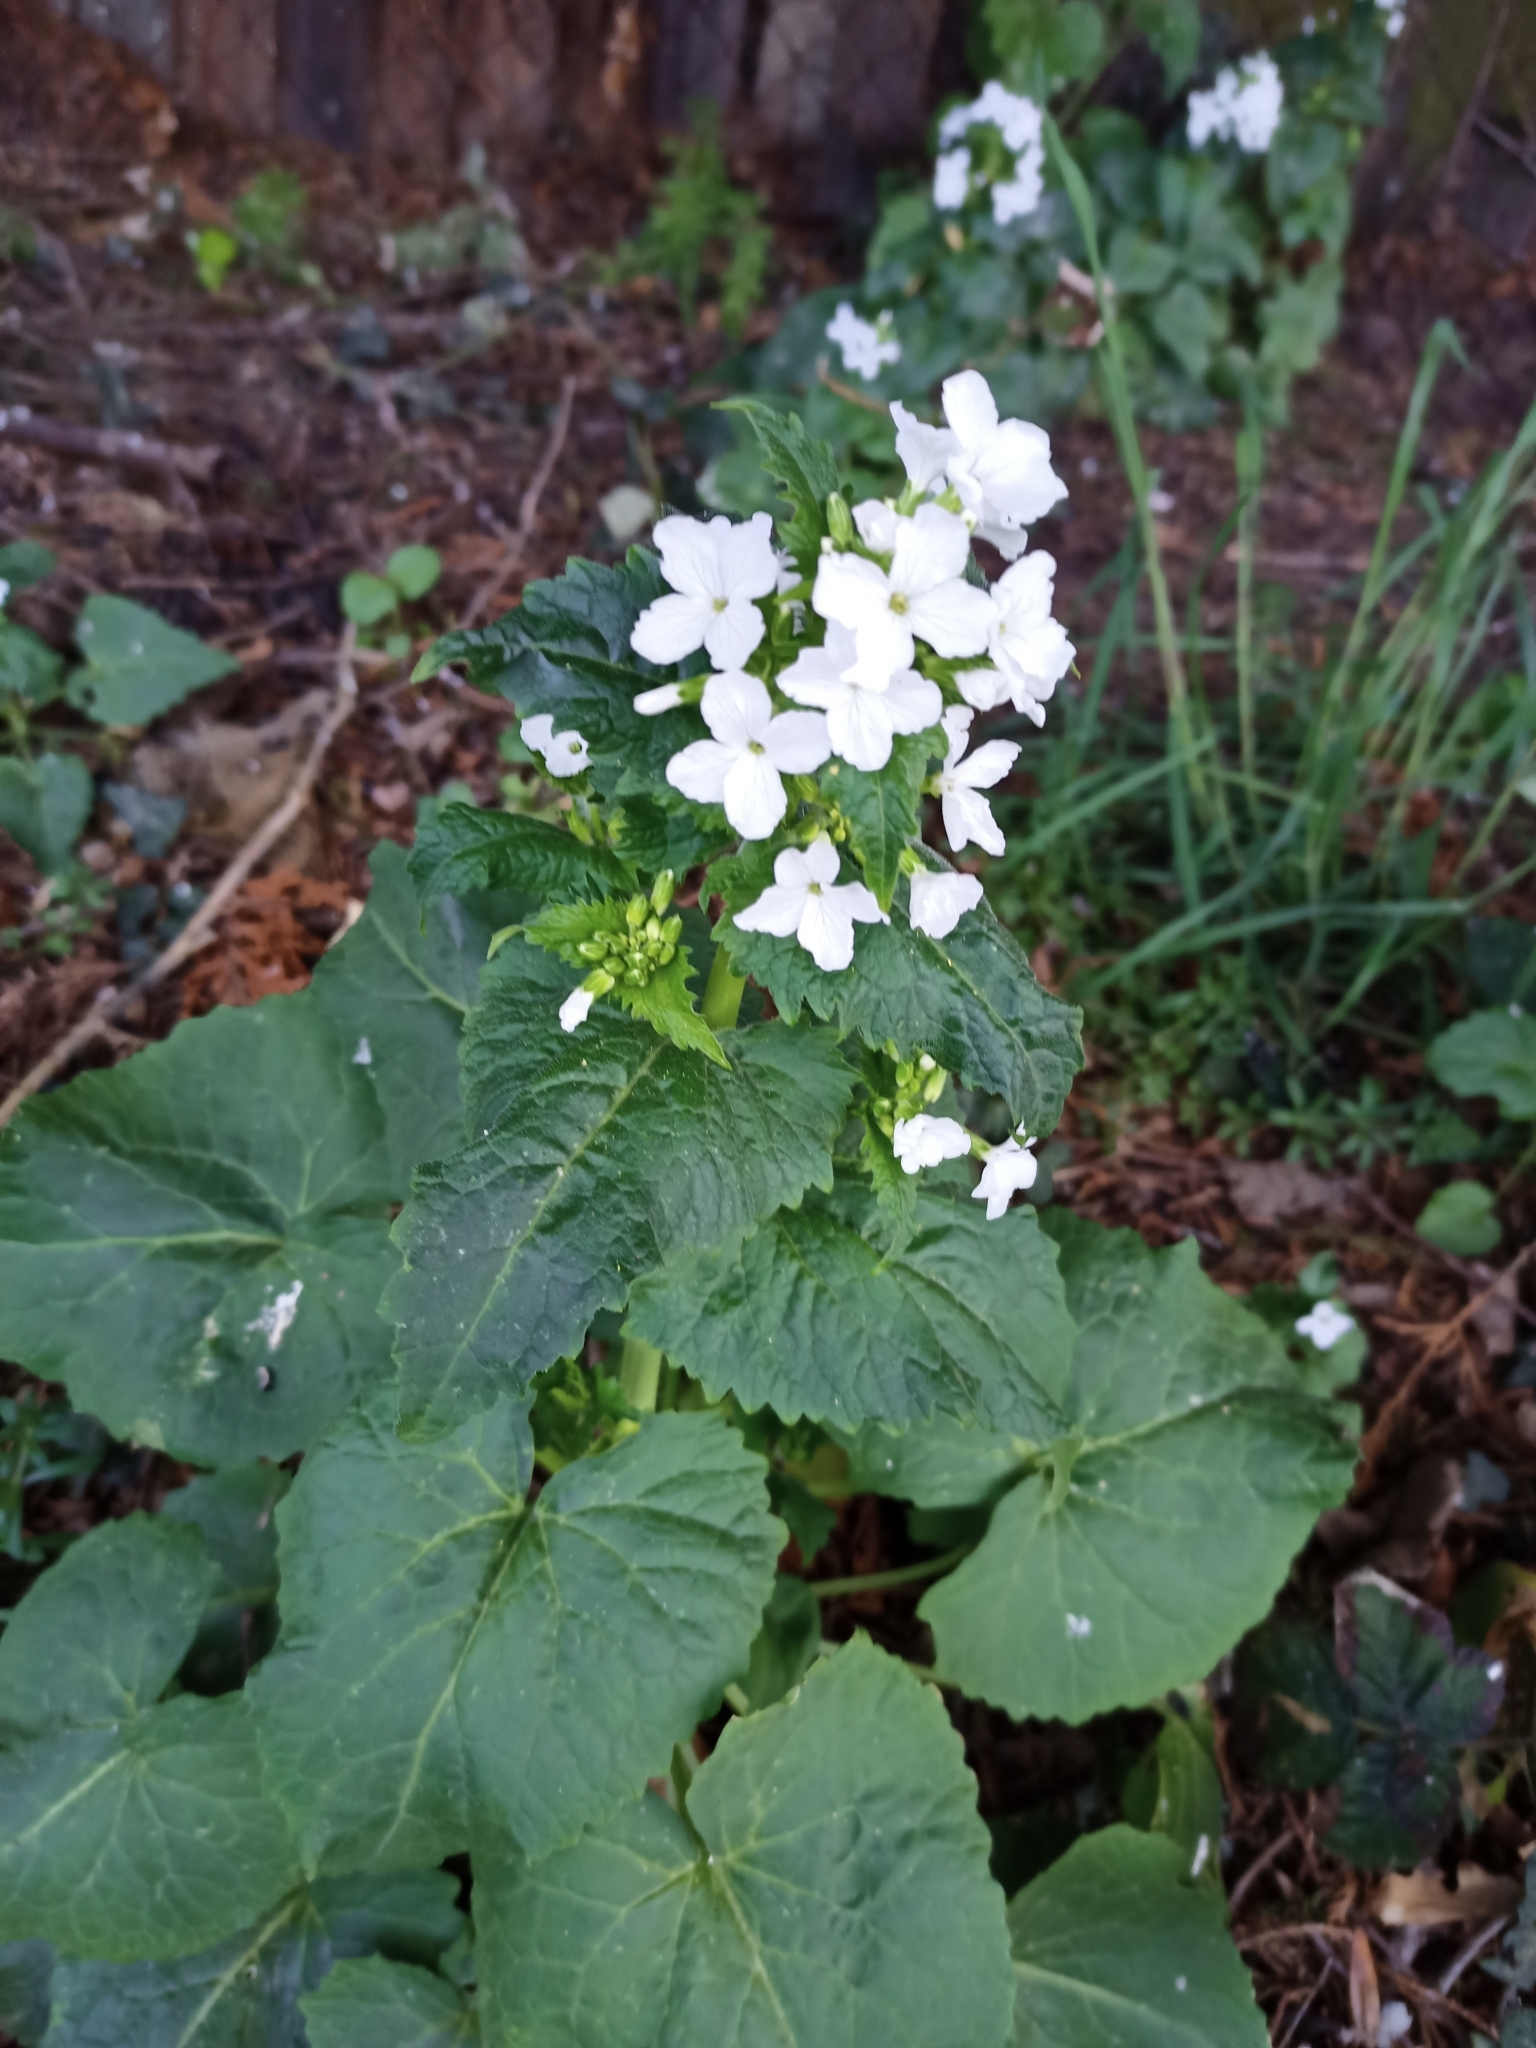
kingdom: Plantae
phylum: Tracheophyta
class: Magnoliopsida
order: Brassicales
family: Brassicaceae
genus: Lunaria
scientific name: Lunaria annua
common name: Honesty
